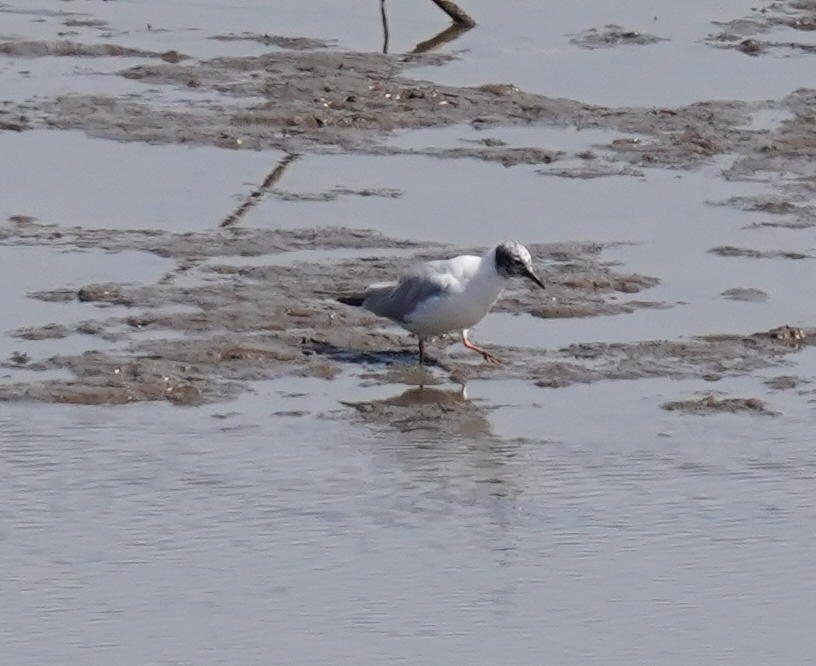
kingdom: Animalia
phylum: Chordata
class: Aves
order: Charadriiformes
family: Laridae
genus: Chroicocephalus
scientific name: Chroicocephalus philadelphia
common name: Bonaparte's gull
